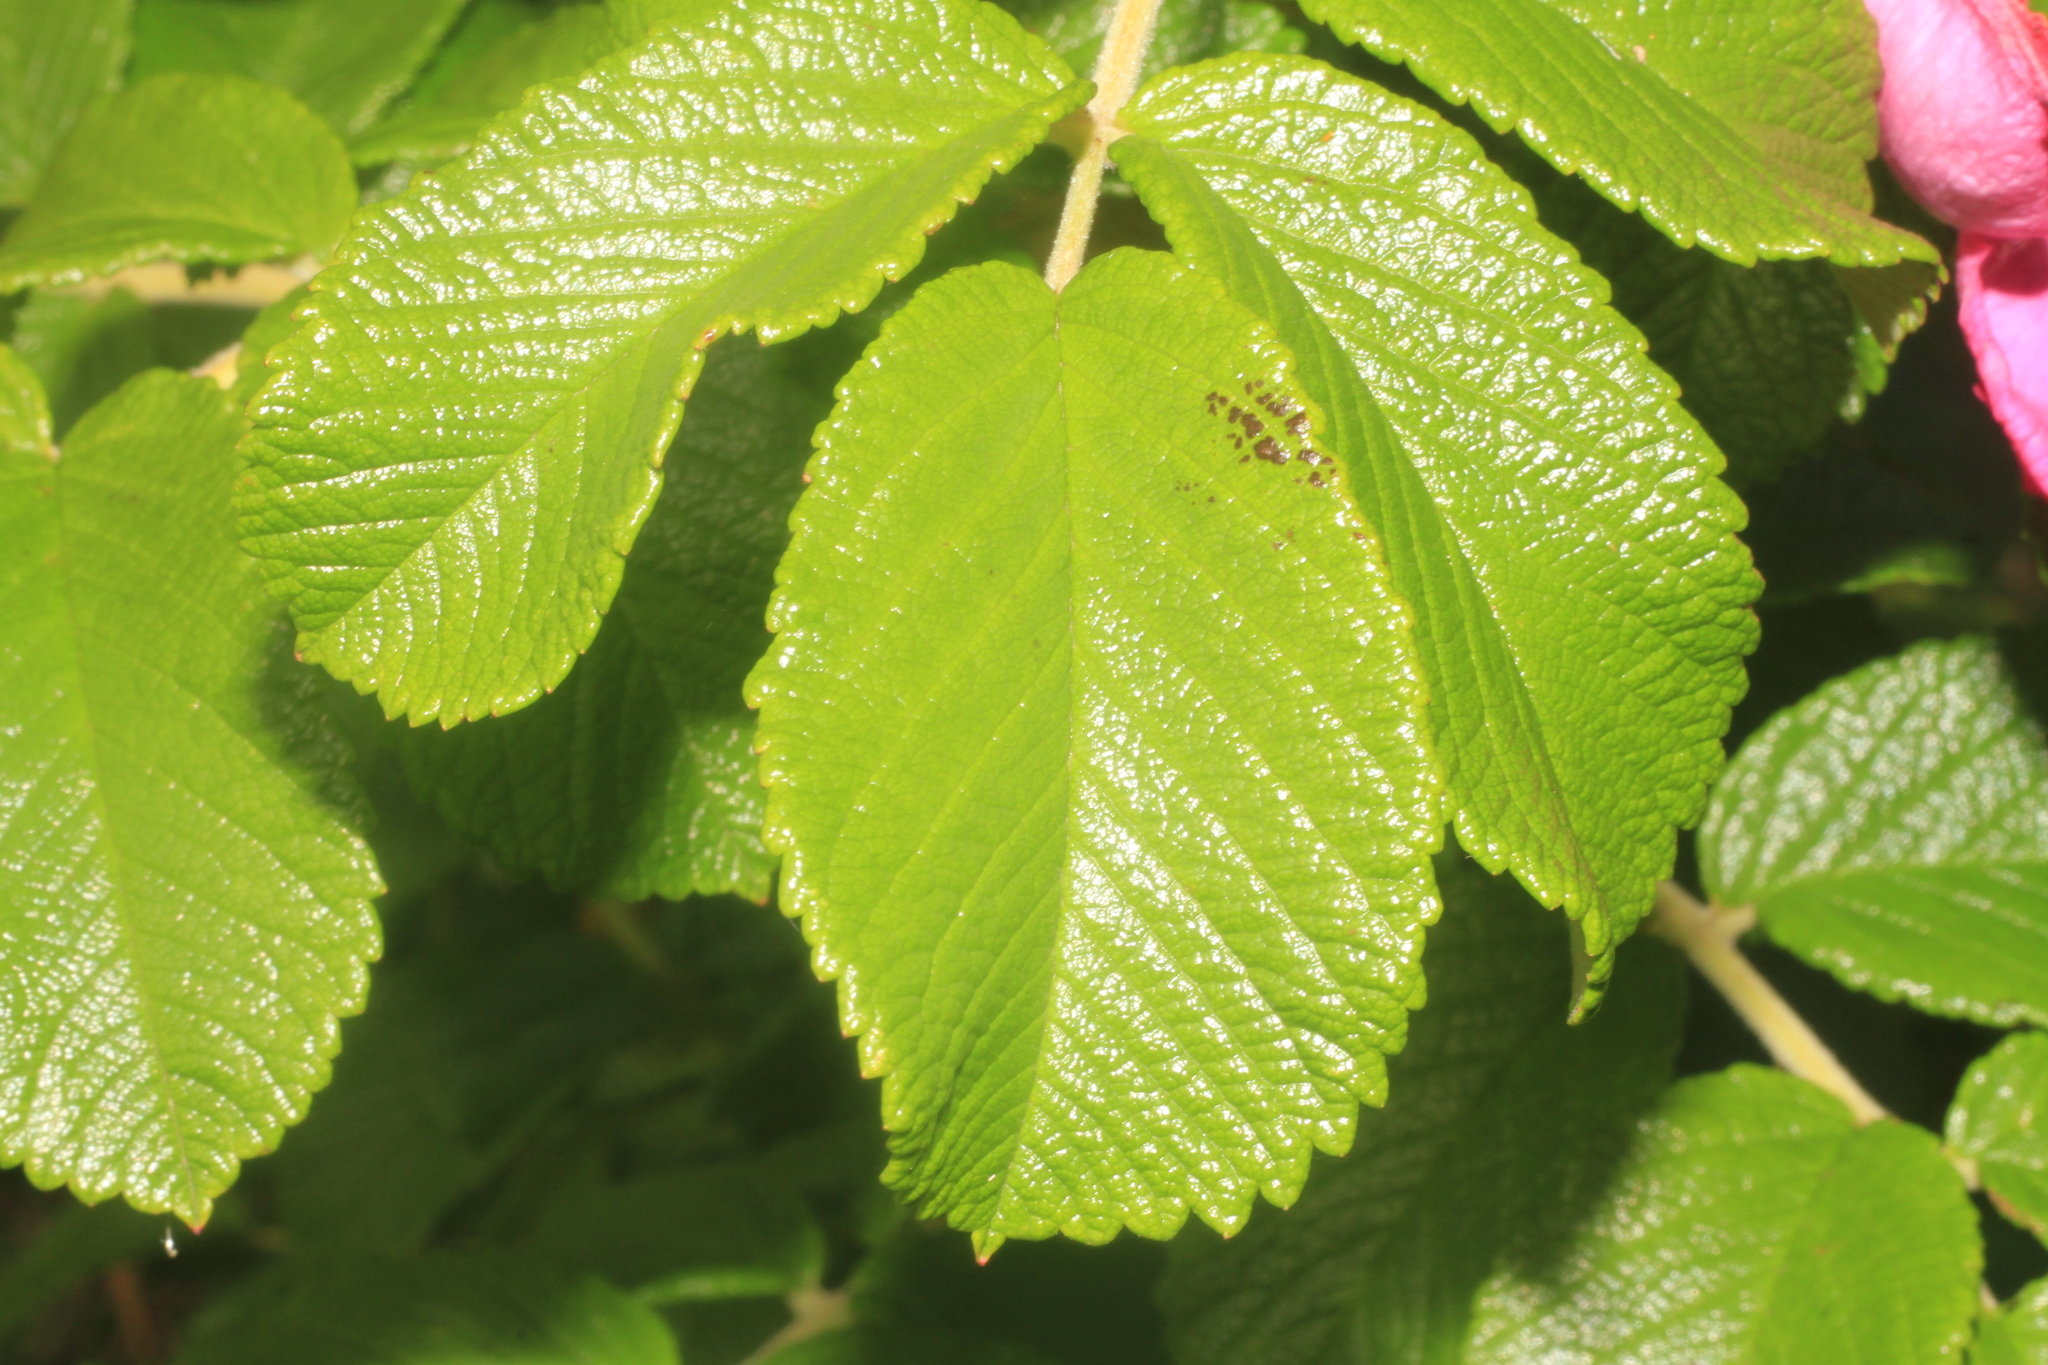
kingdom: Plantae
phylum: Tracheophyta
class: Magnoliopsida
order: Rosales
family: Rosaceae
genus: Rosa
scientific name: Rosa rugosa
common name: Japanese rose
